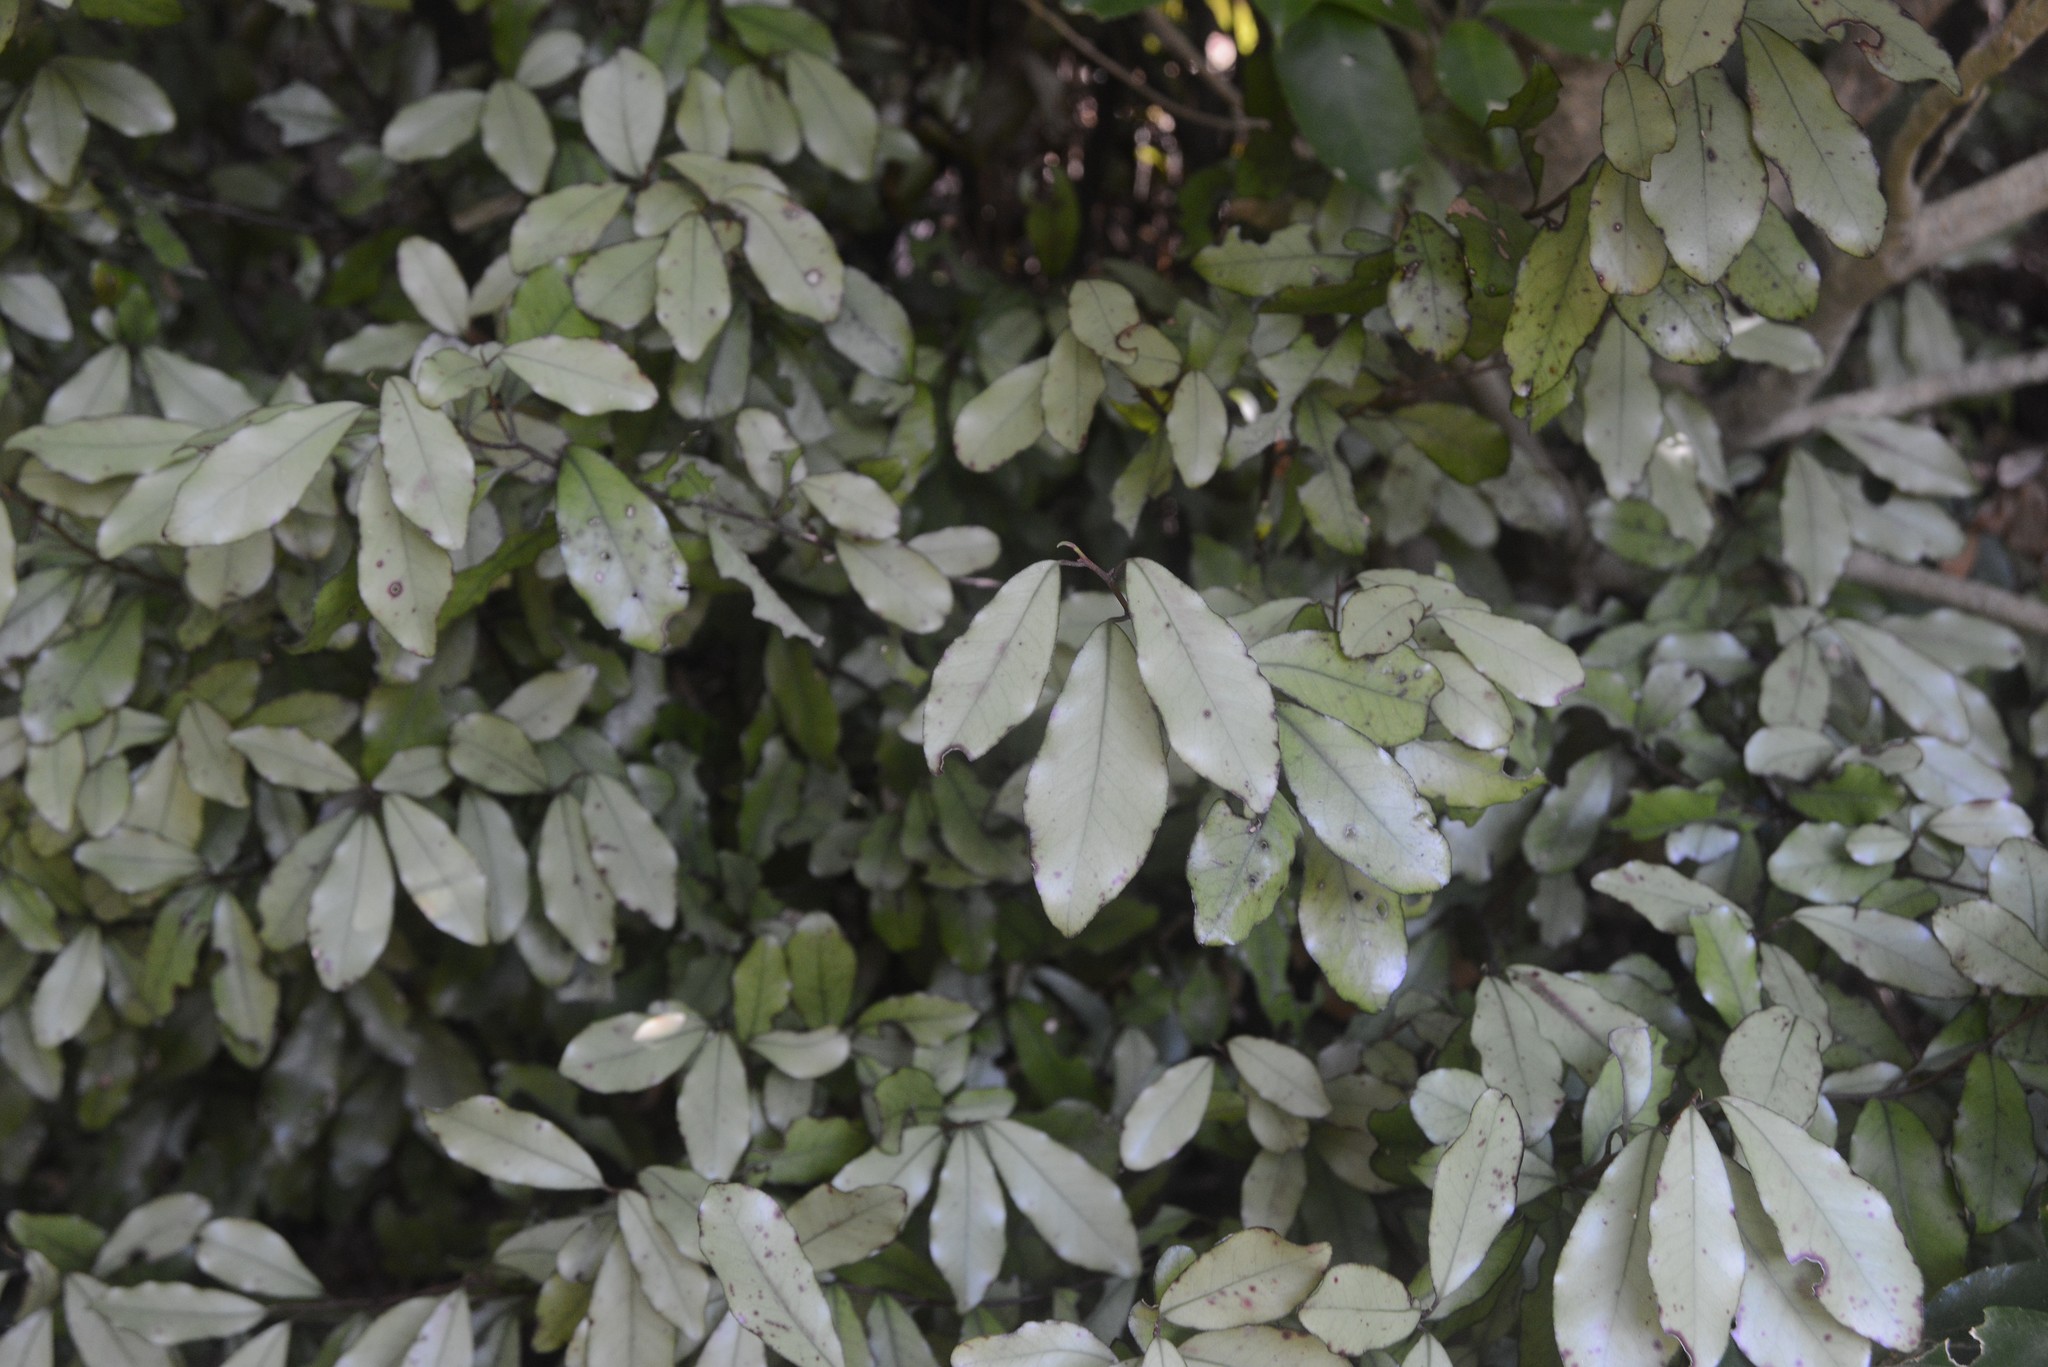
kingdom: Plantae
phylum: Tracheophyta
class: Magnoliopsida
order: Canellales
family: Winteraceae
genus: Pseudowintera
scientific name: Pseudowintera colorata
